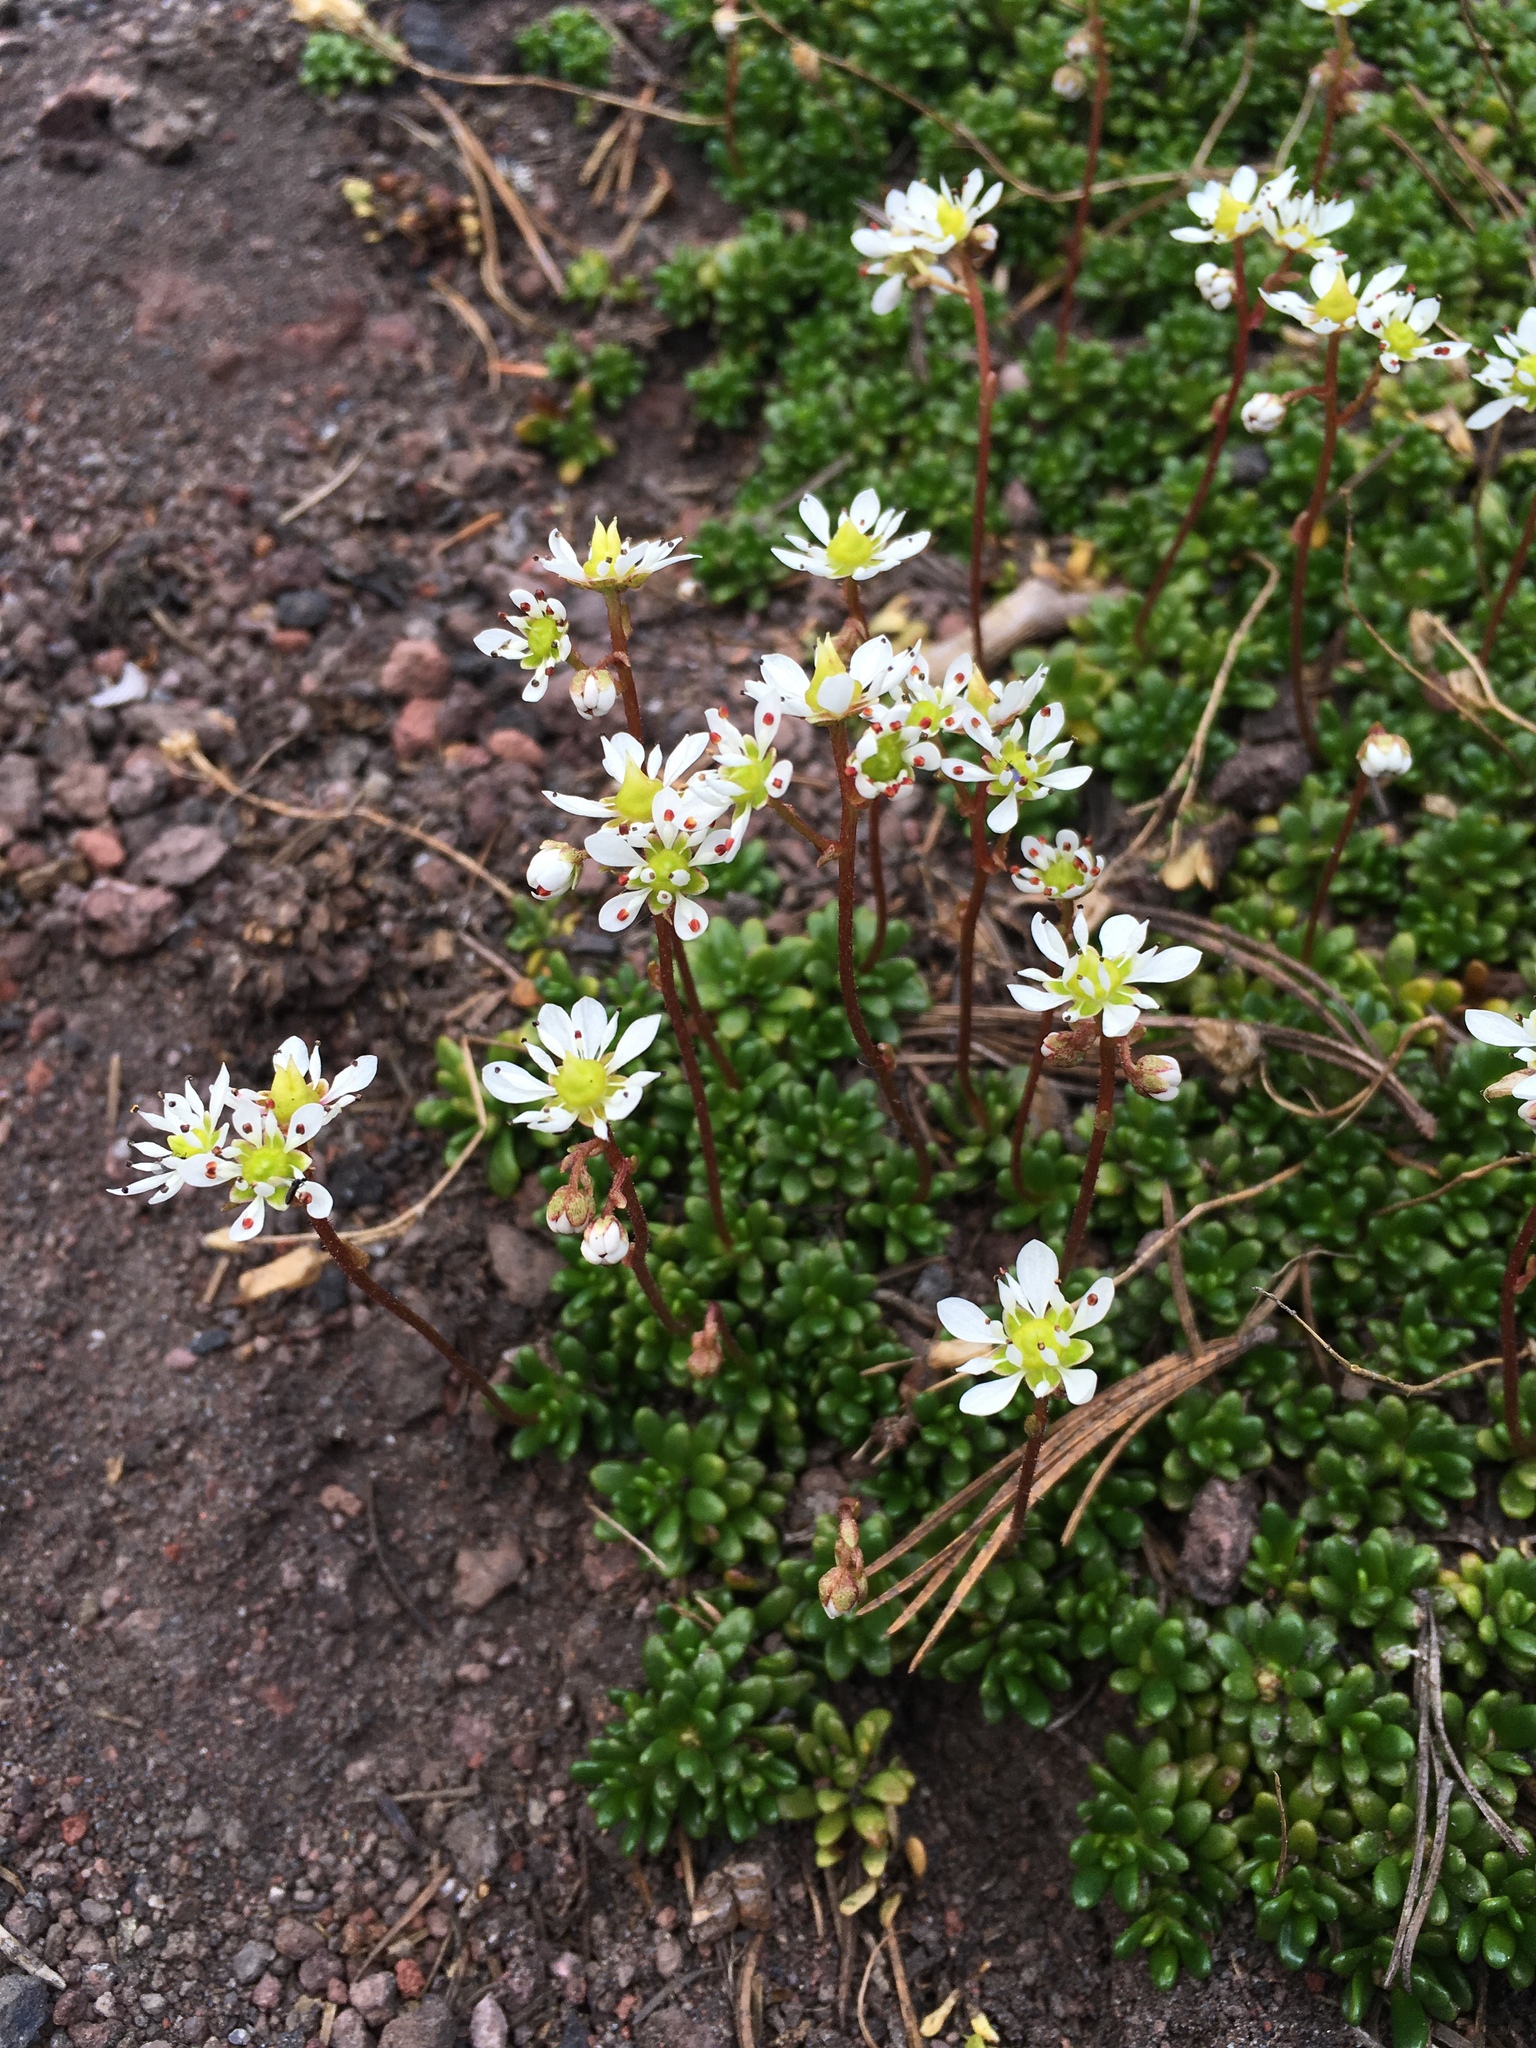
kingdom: Plantae
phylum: Tracheophyta
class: Magnoliopsida
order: Saxifragales
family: Saxifragaceae
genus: Micranthes
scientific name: Micranthes tolmiei
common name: Tolmie's saxifrage
